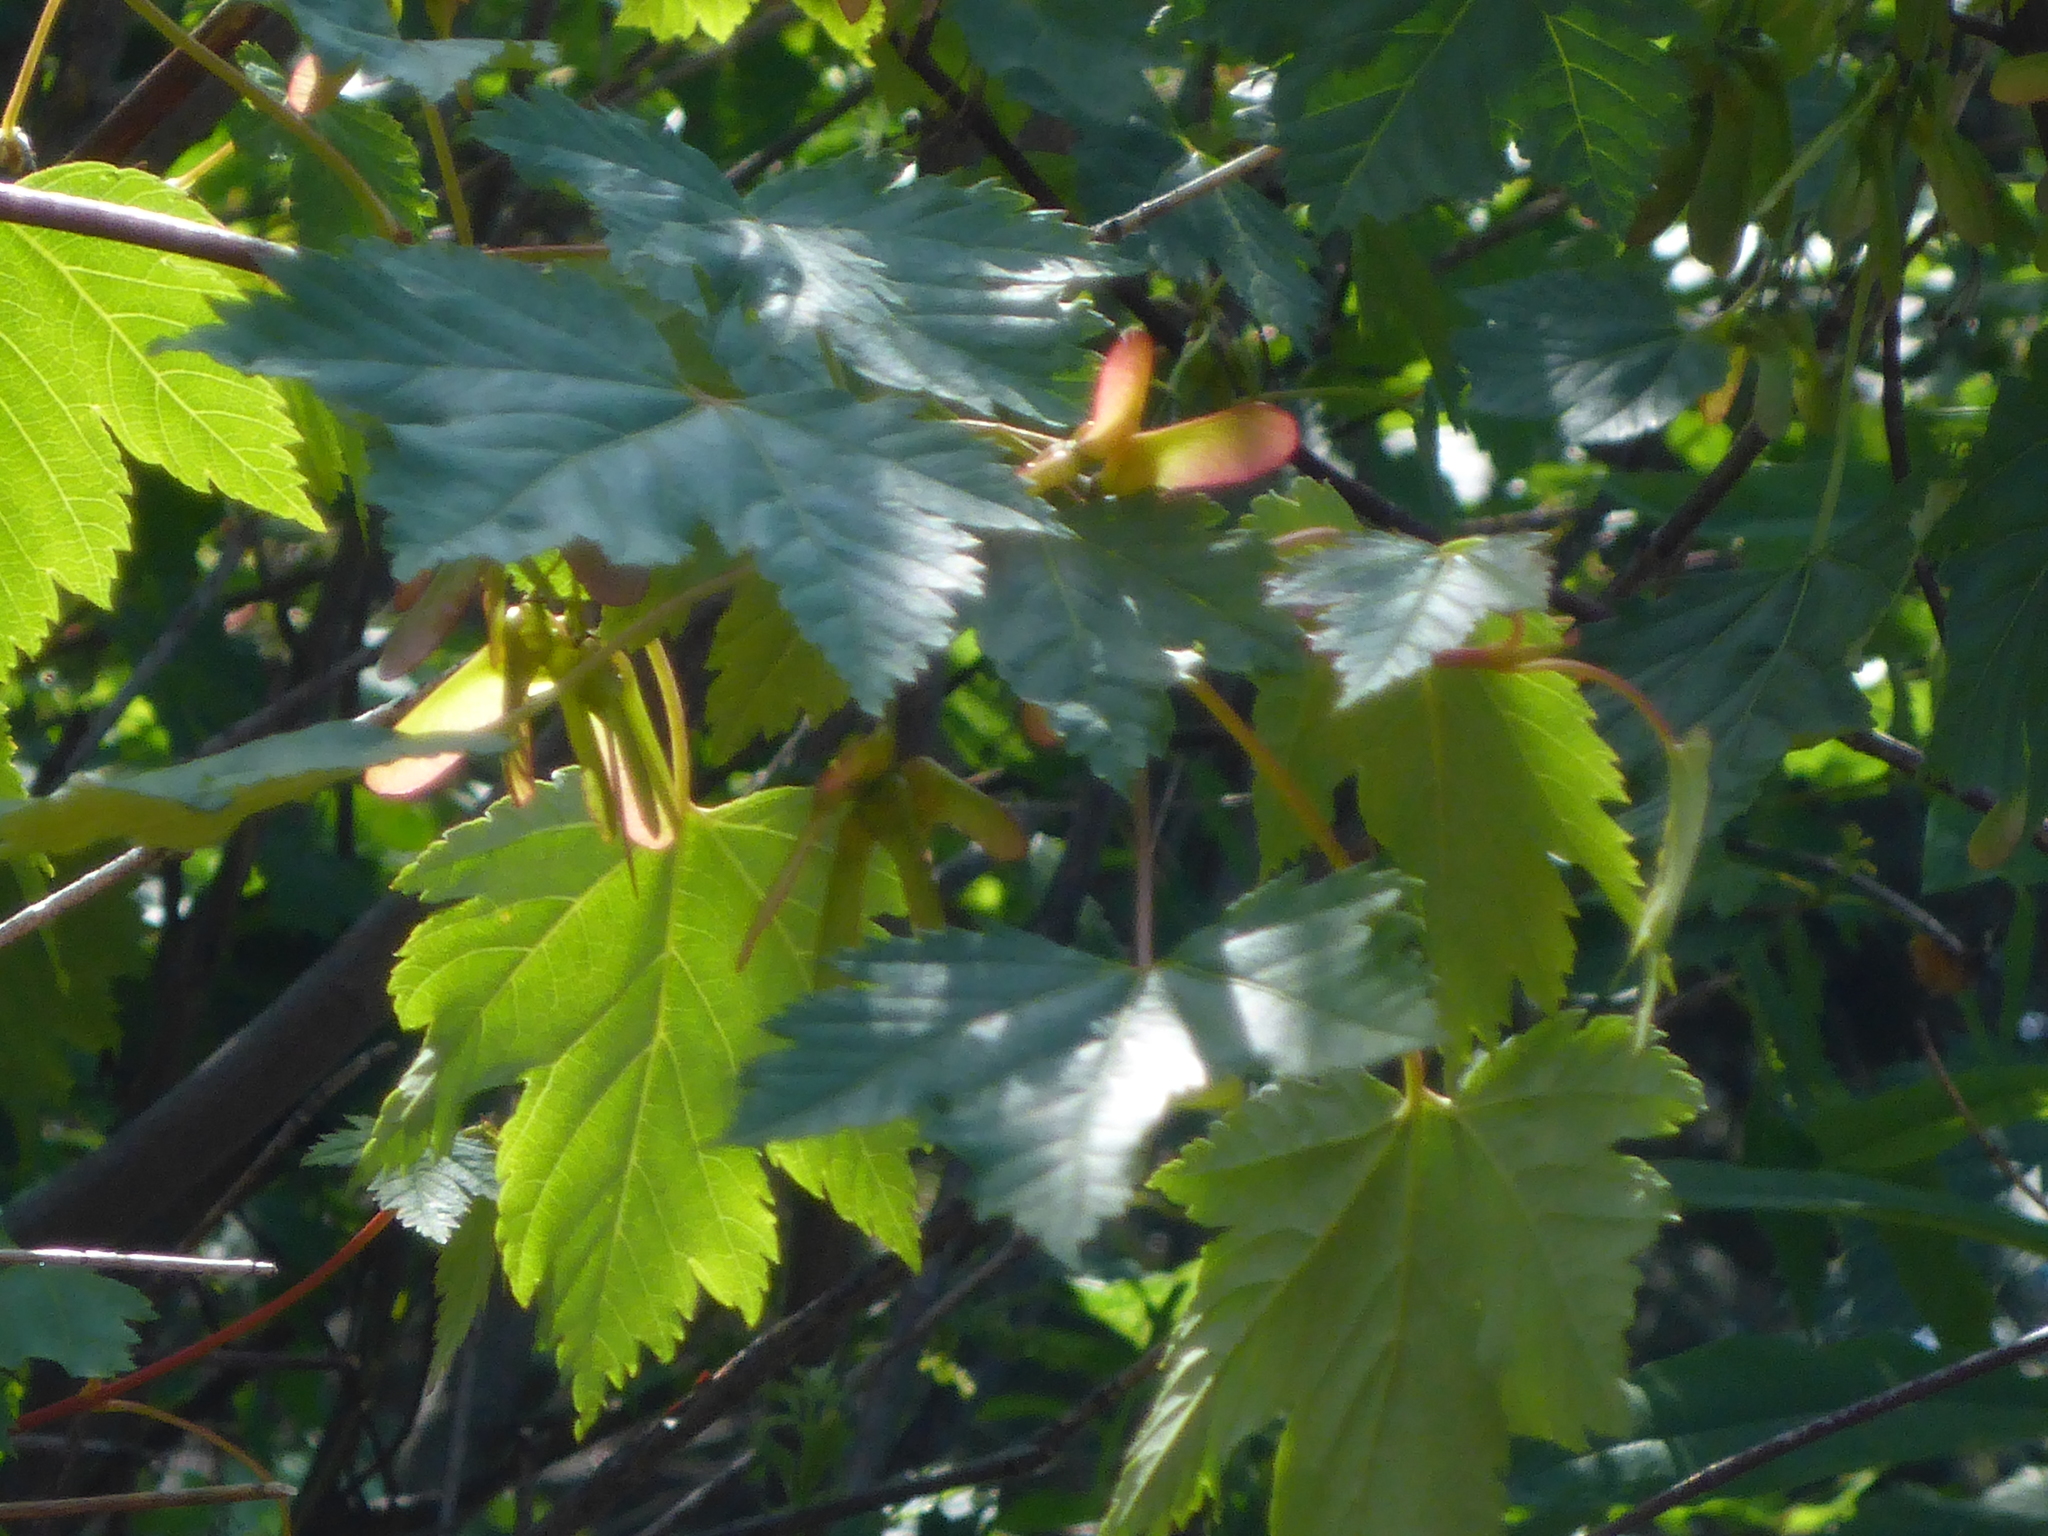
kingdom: Plantae
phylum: Tracheophyta
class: Magnoliopsida
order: Sapindales
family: Sapindaceae
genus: Acer
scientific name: Acer glabrum
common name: Rocky mountain maple
